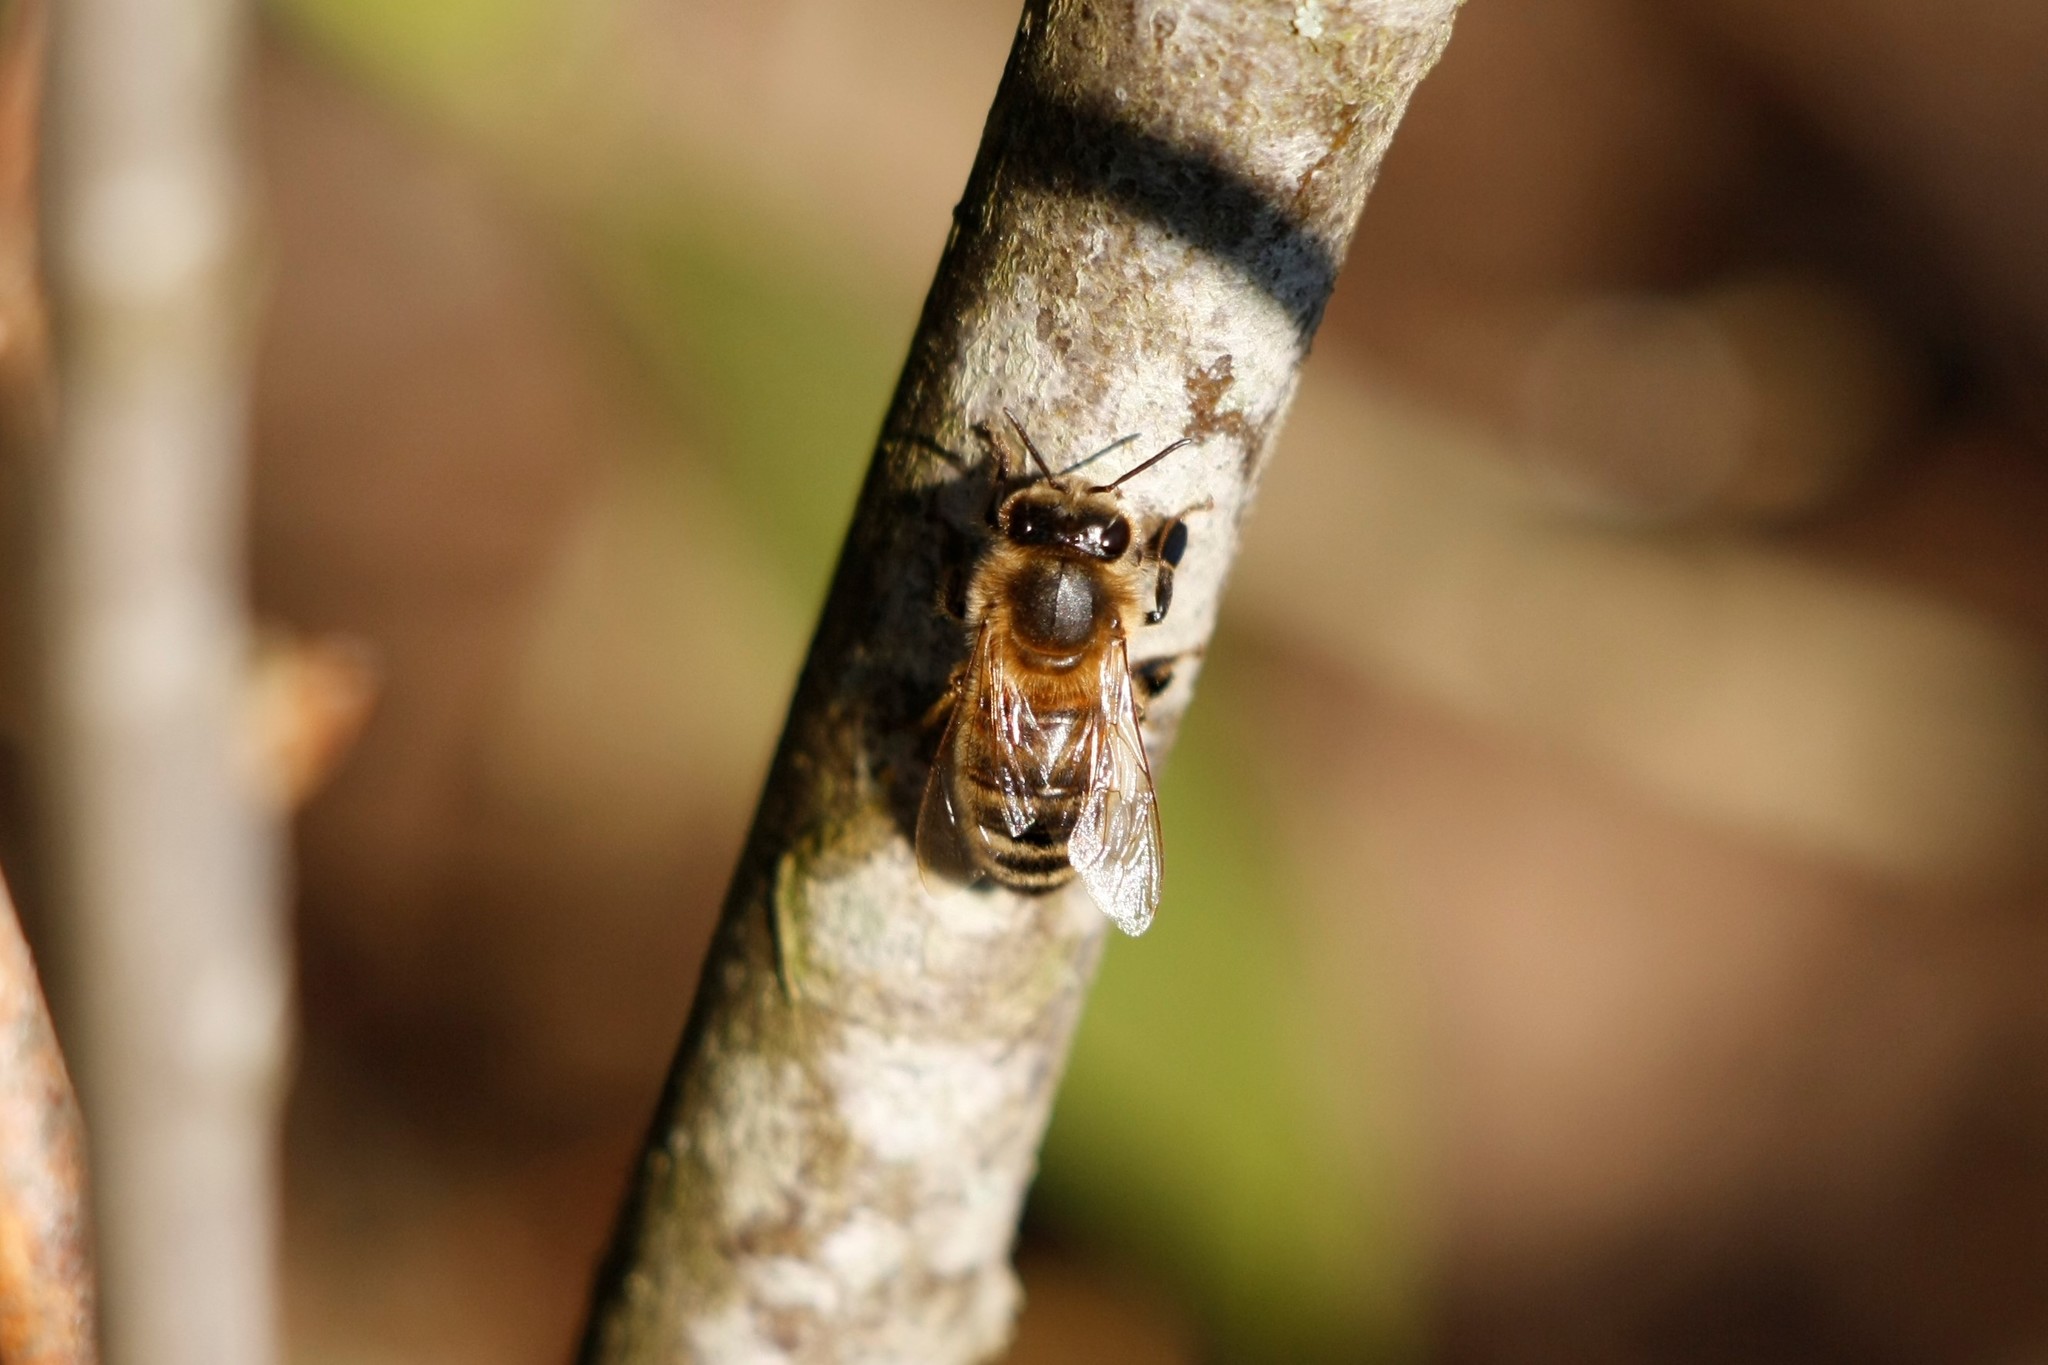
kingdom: Animalia
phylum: Arthropoda
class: Insecta
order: Hymenoptera
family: Apidae
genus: Apis
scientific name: Apis mellifera
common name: Honey bee
